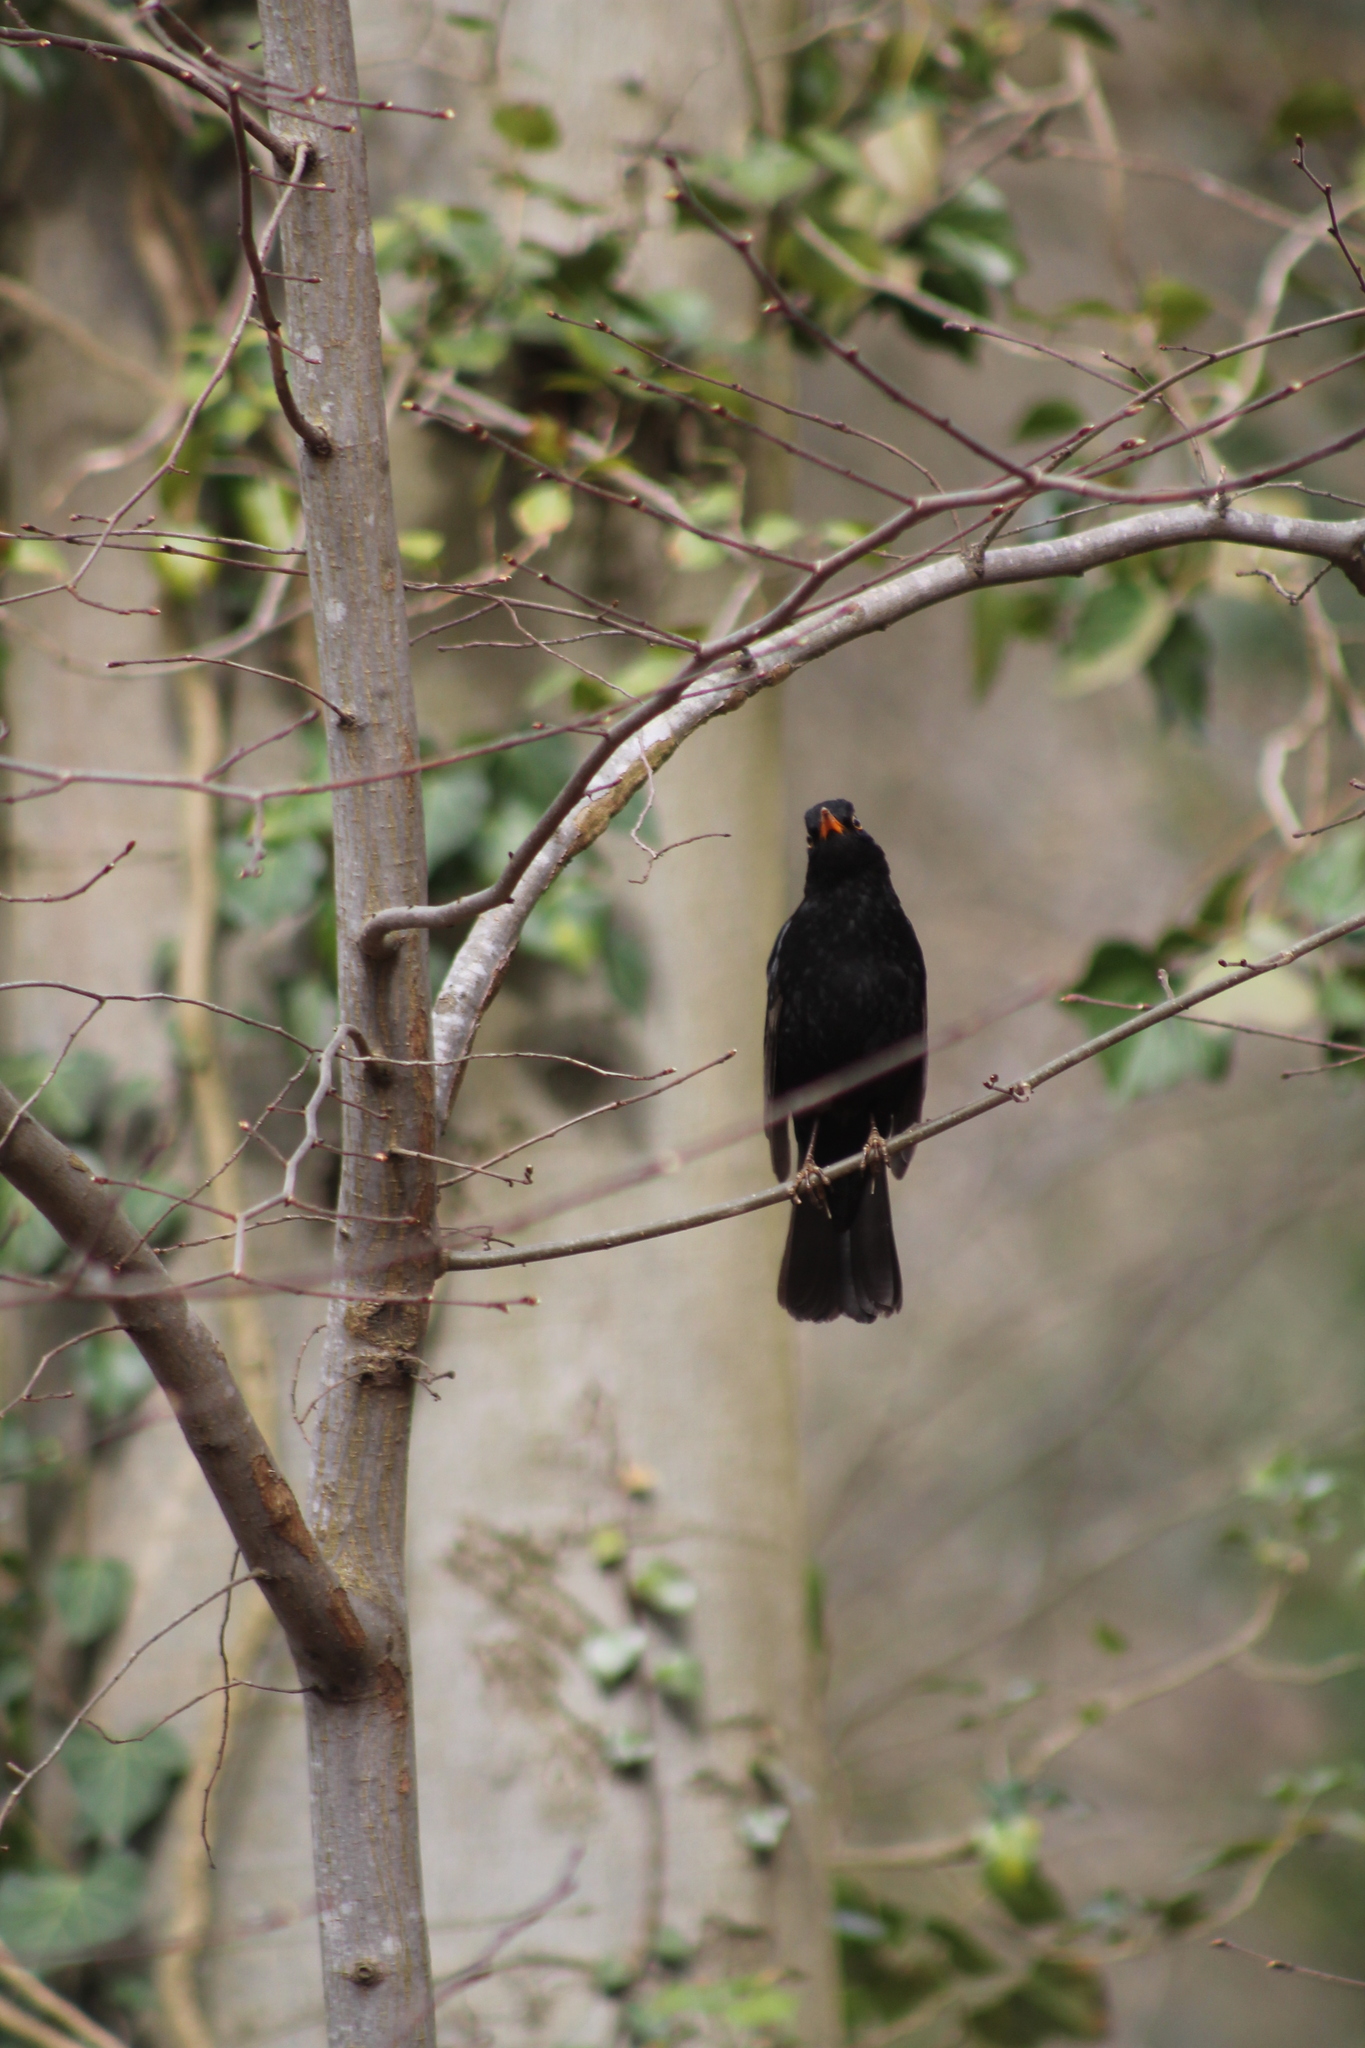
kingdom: Animalia
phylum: Chordata
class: Aves
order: Passeriformes
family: Turdidae
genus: Turdus
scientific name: Turdus merula
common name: Common blackbird
